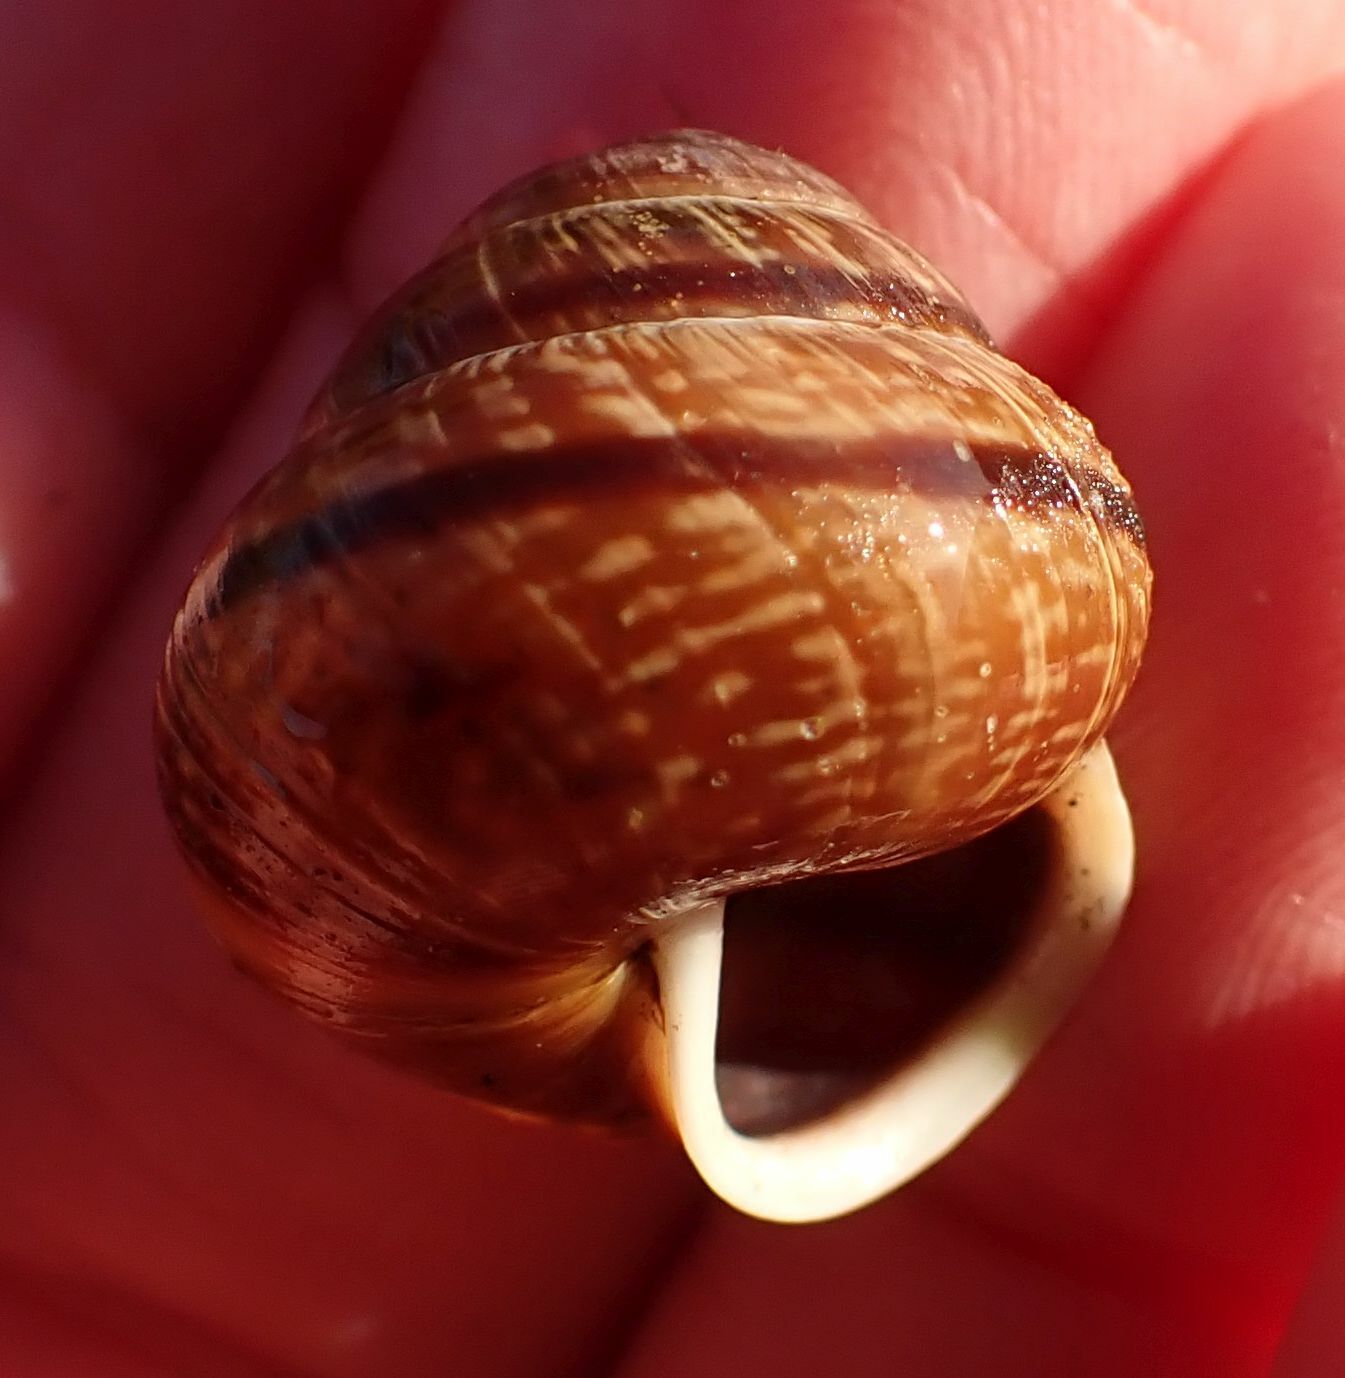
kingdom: Animalia
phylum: Mollusca
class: Gastropoda
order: Stylommatophora
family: Helicidae
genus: Arianta
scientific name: Arianta arbustorum
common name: Copse snail
